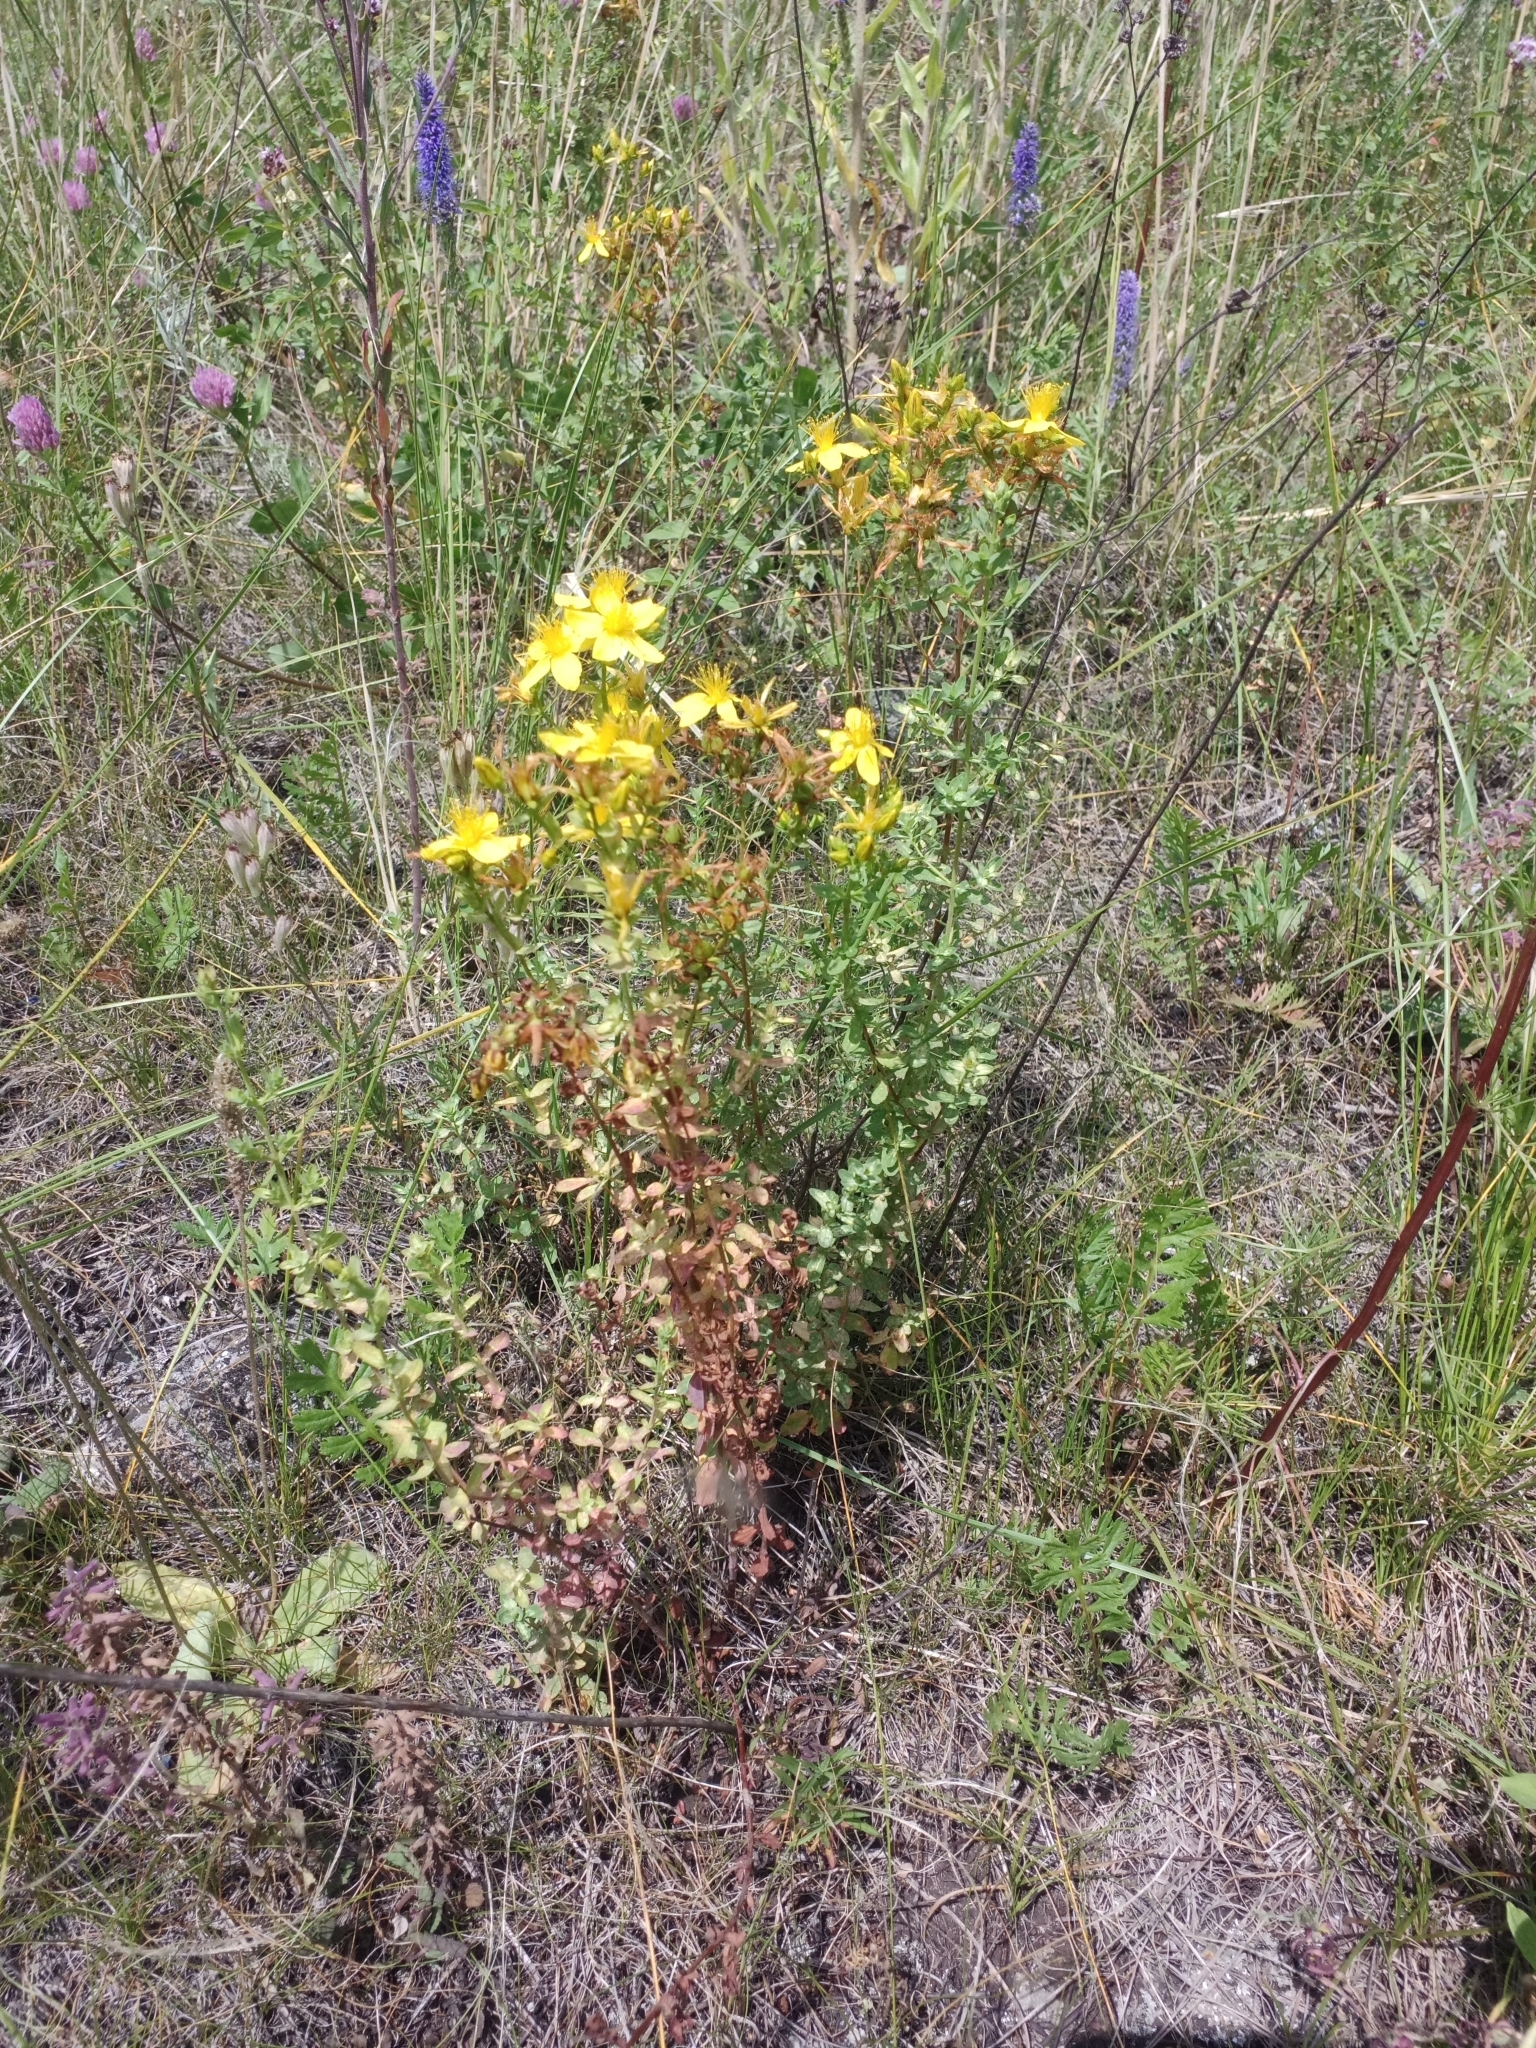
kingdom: Plantae
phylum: Tracheophyta
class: Magnoliopsida
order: Malpighiales
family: Hypericaceae
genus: Hypericum
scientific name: Hypericum perforatum
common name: Common st. johnswort
